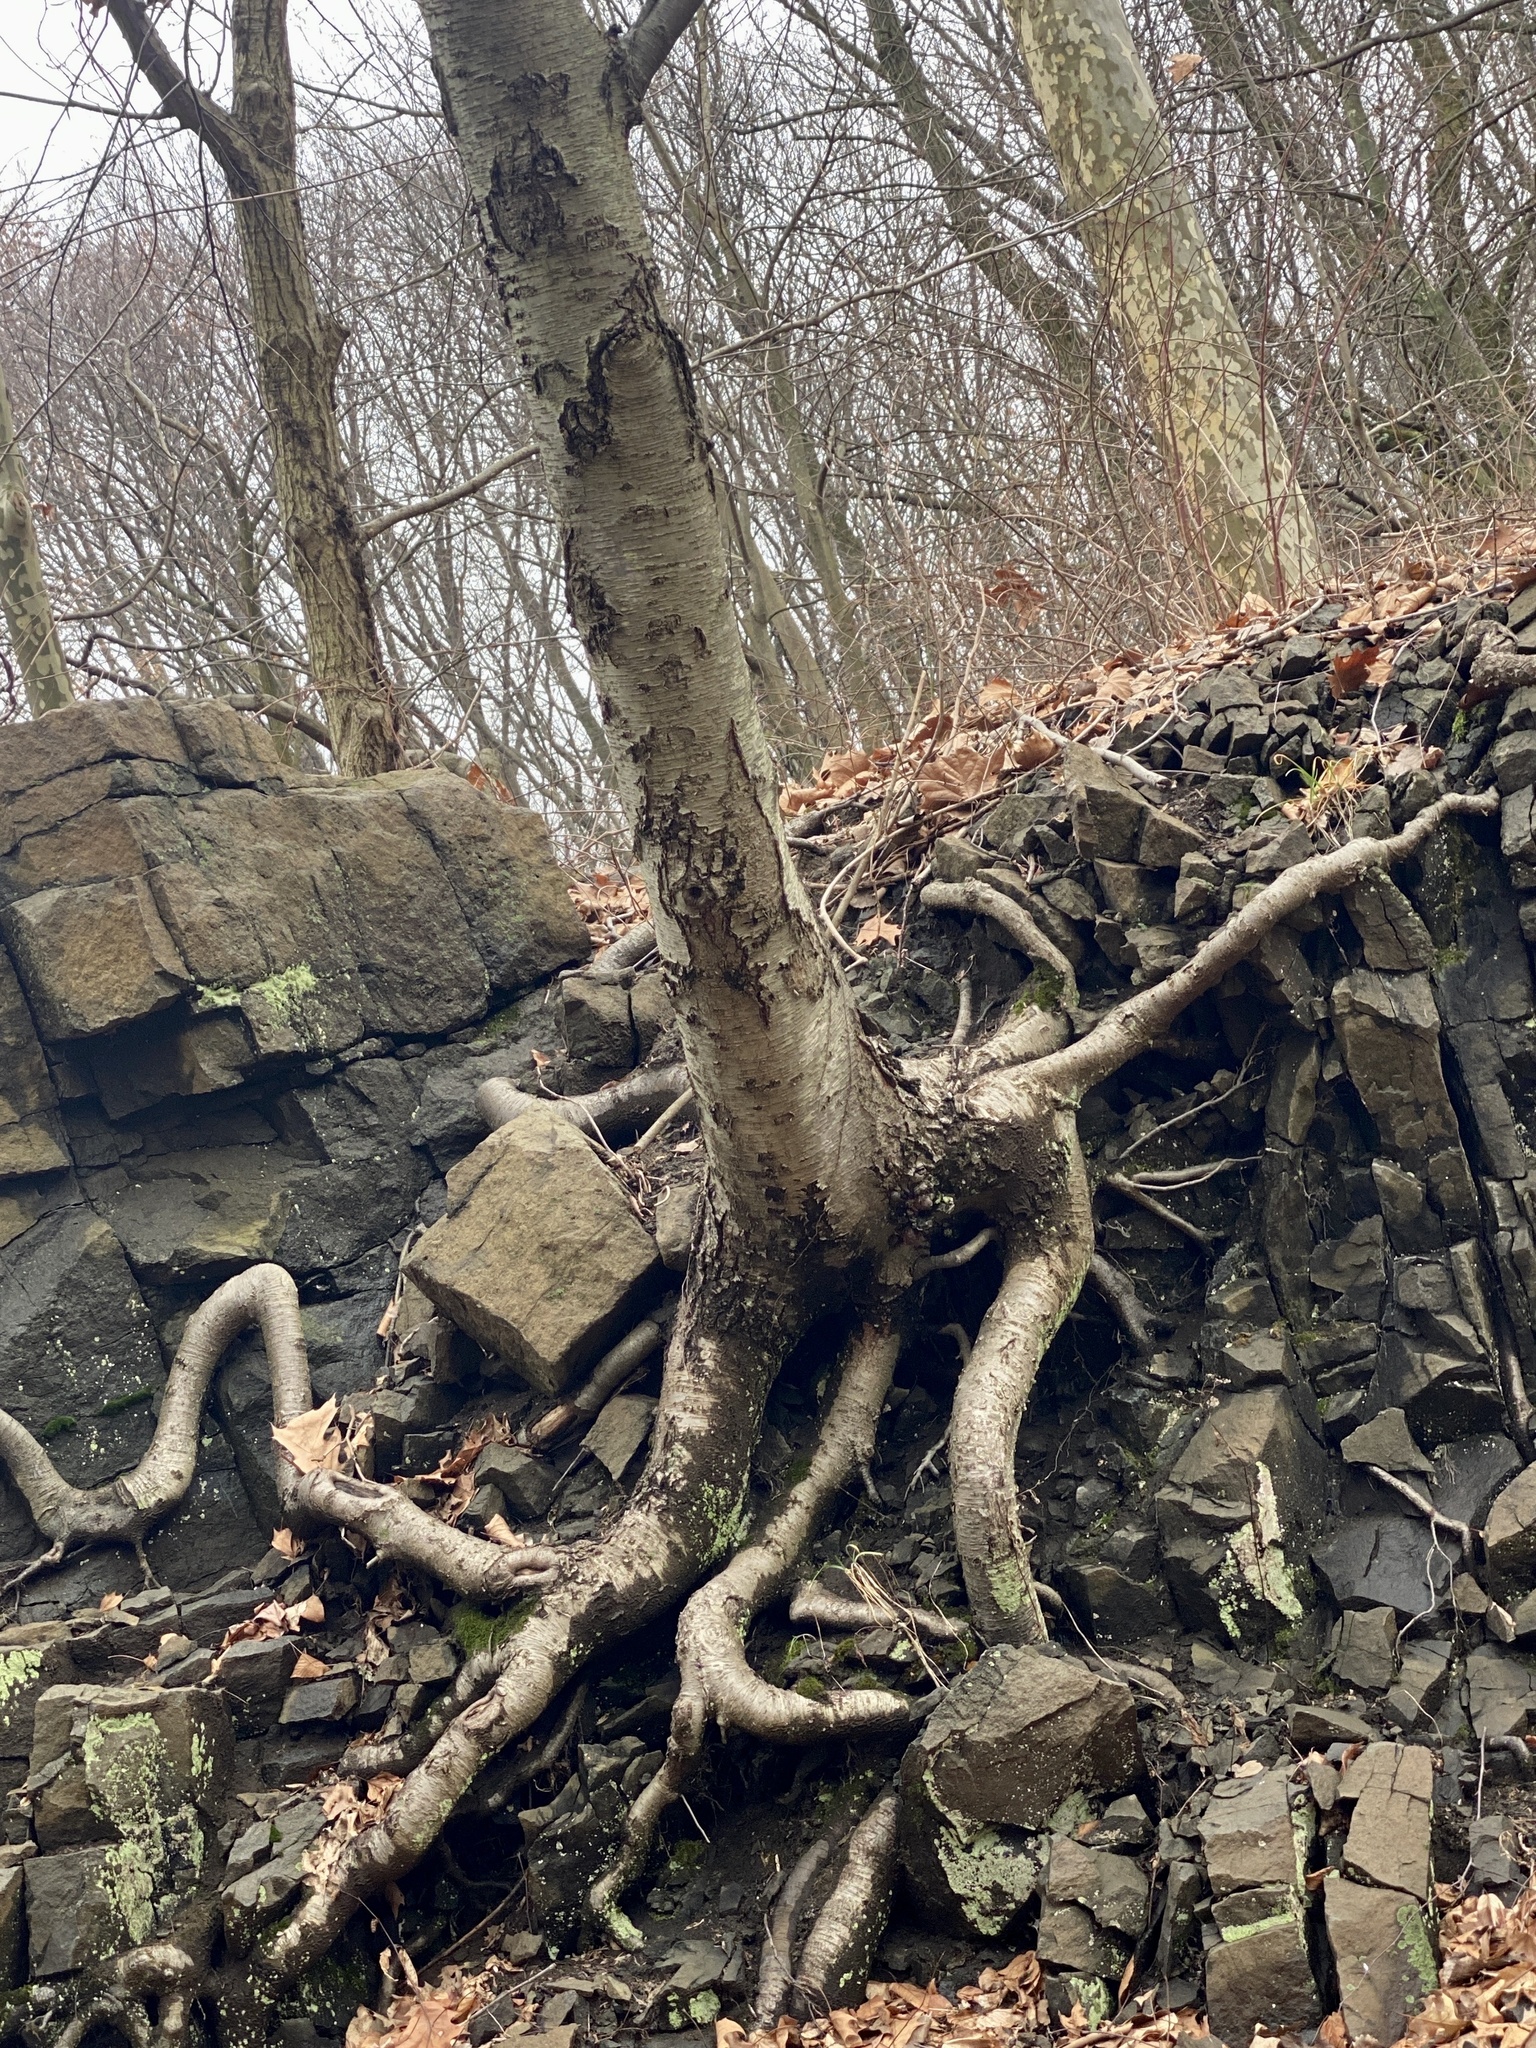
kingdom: Plantae
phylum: Tracheophyta
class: Magnoliopsida
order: Fagales
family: Betulaceae
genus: Betula
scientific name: Betula lenta
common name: Black birch
